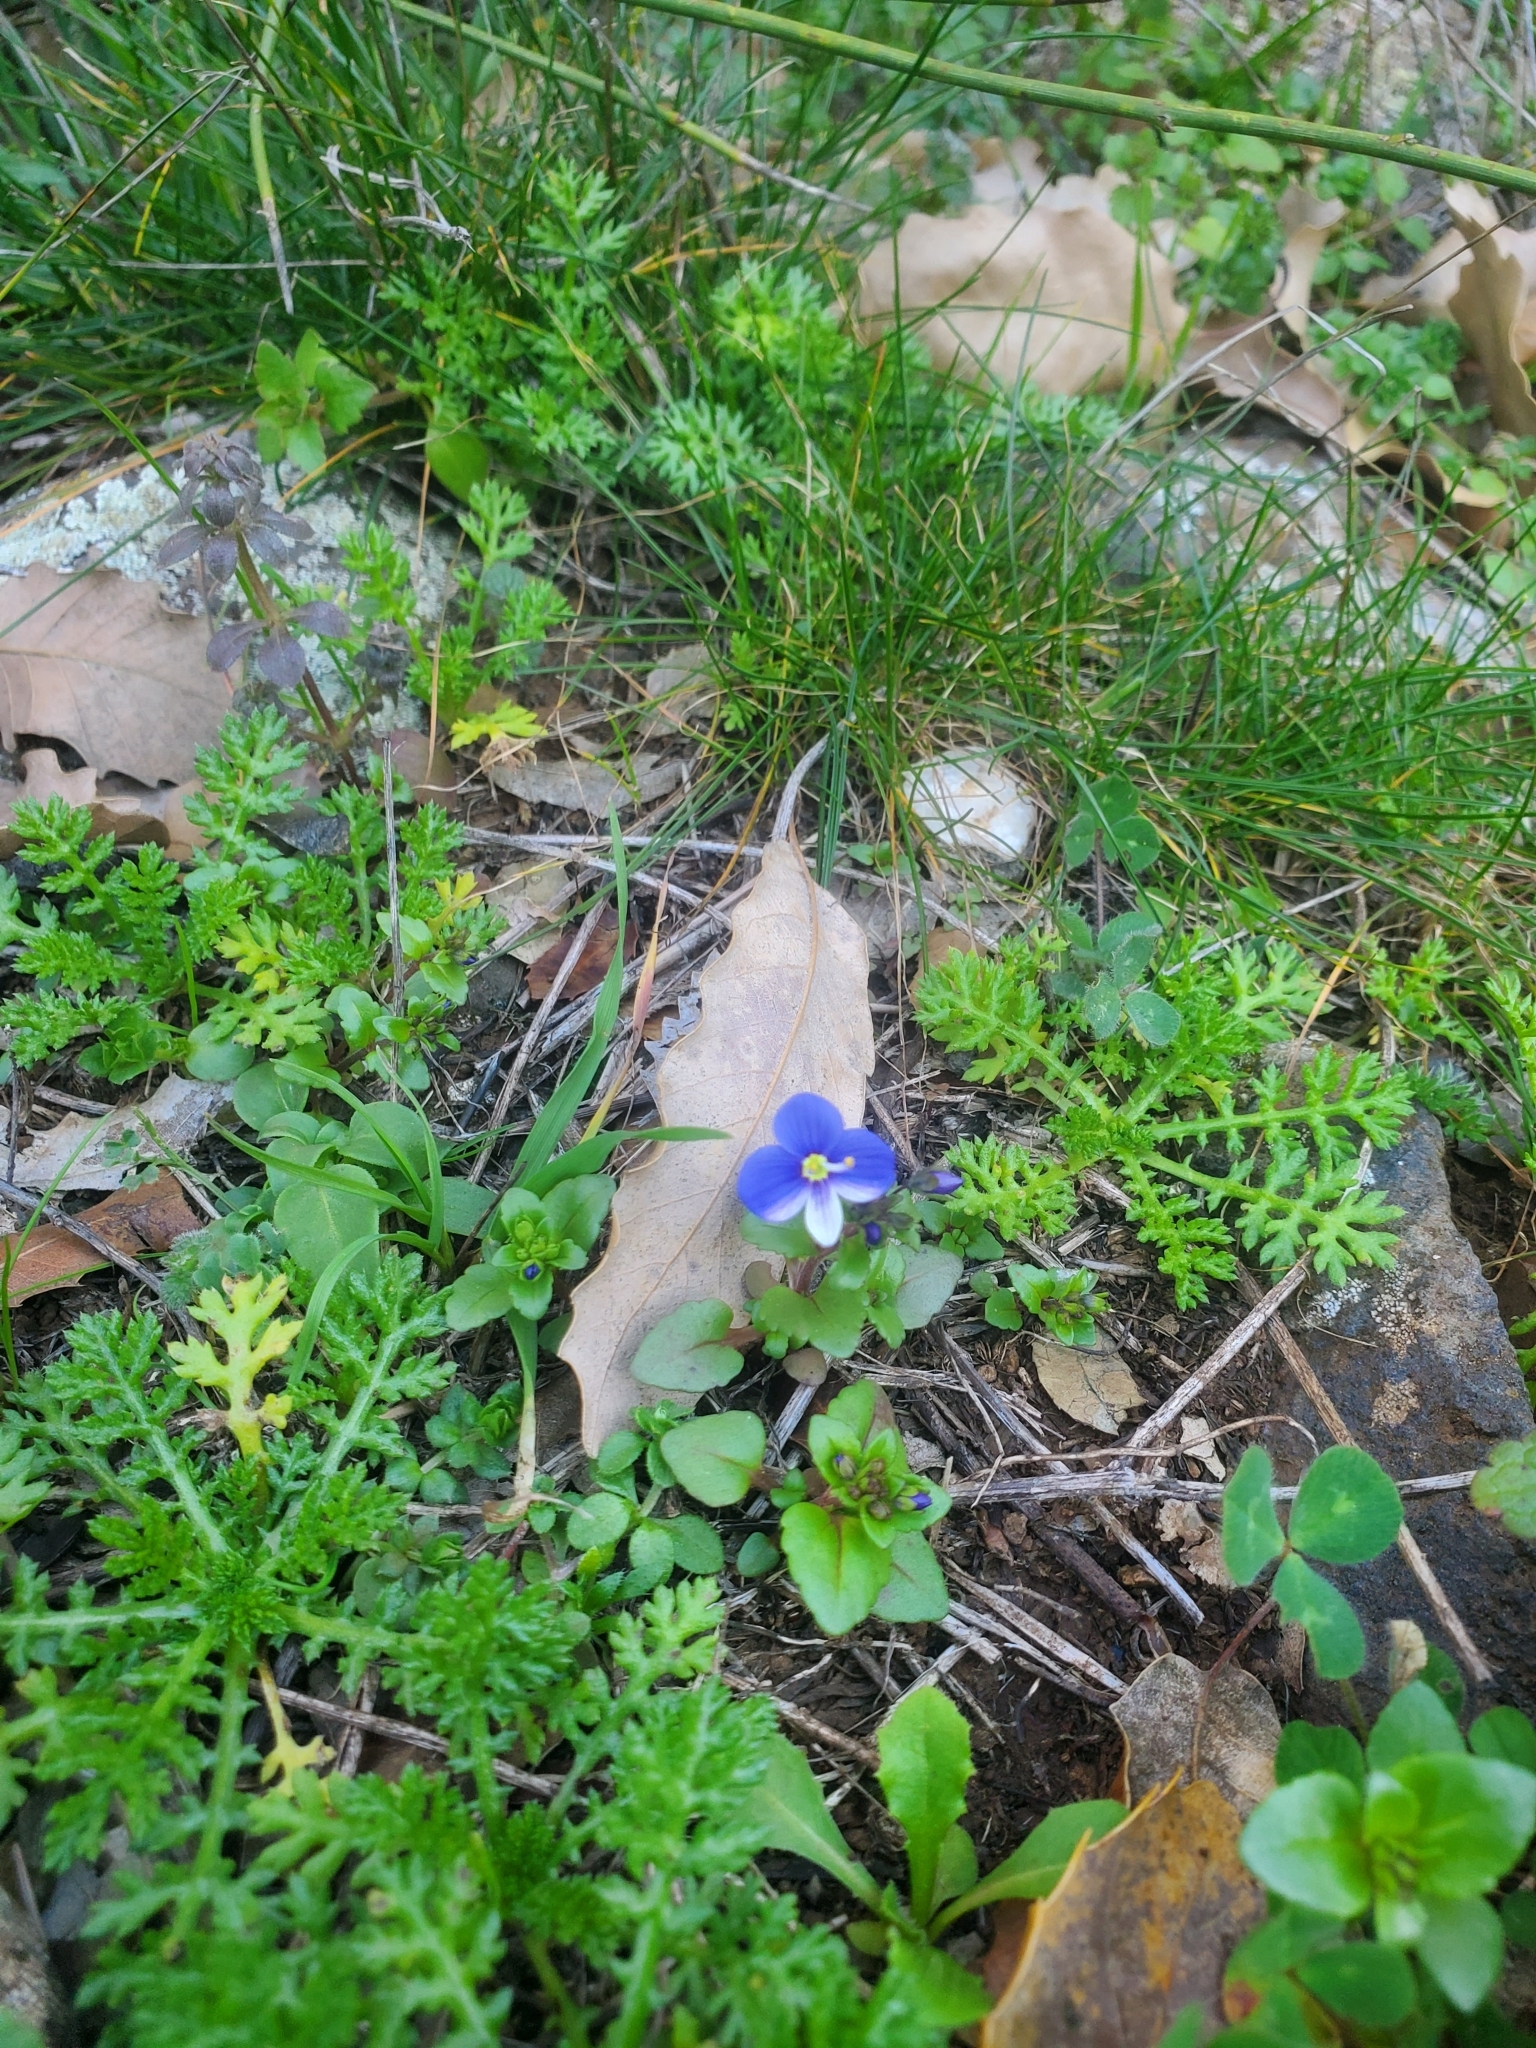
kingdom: Plantae
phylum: Tracheophyta
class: Magnoliopsida
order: Lamiales
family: Plantaginaceae
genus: Veronica
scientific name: Veronica syriaca
